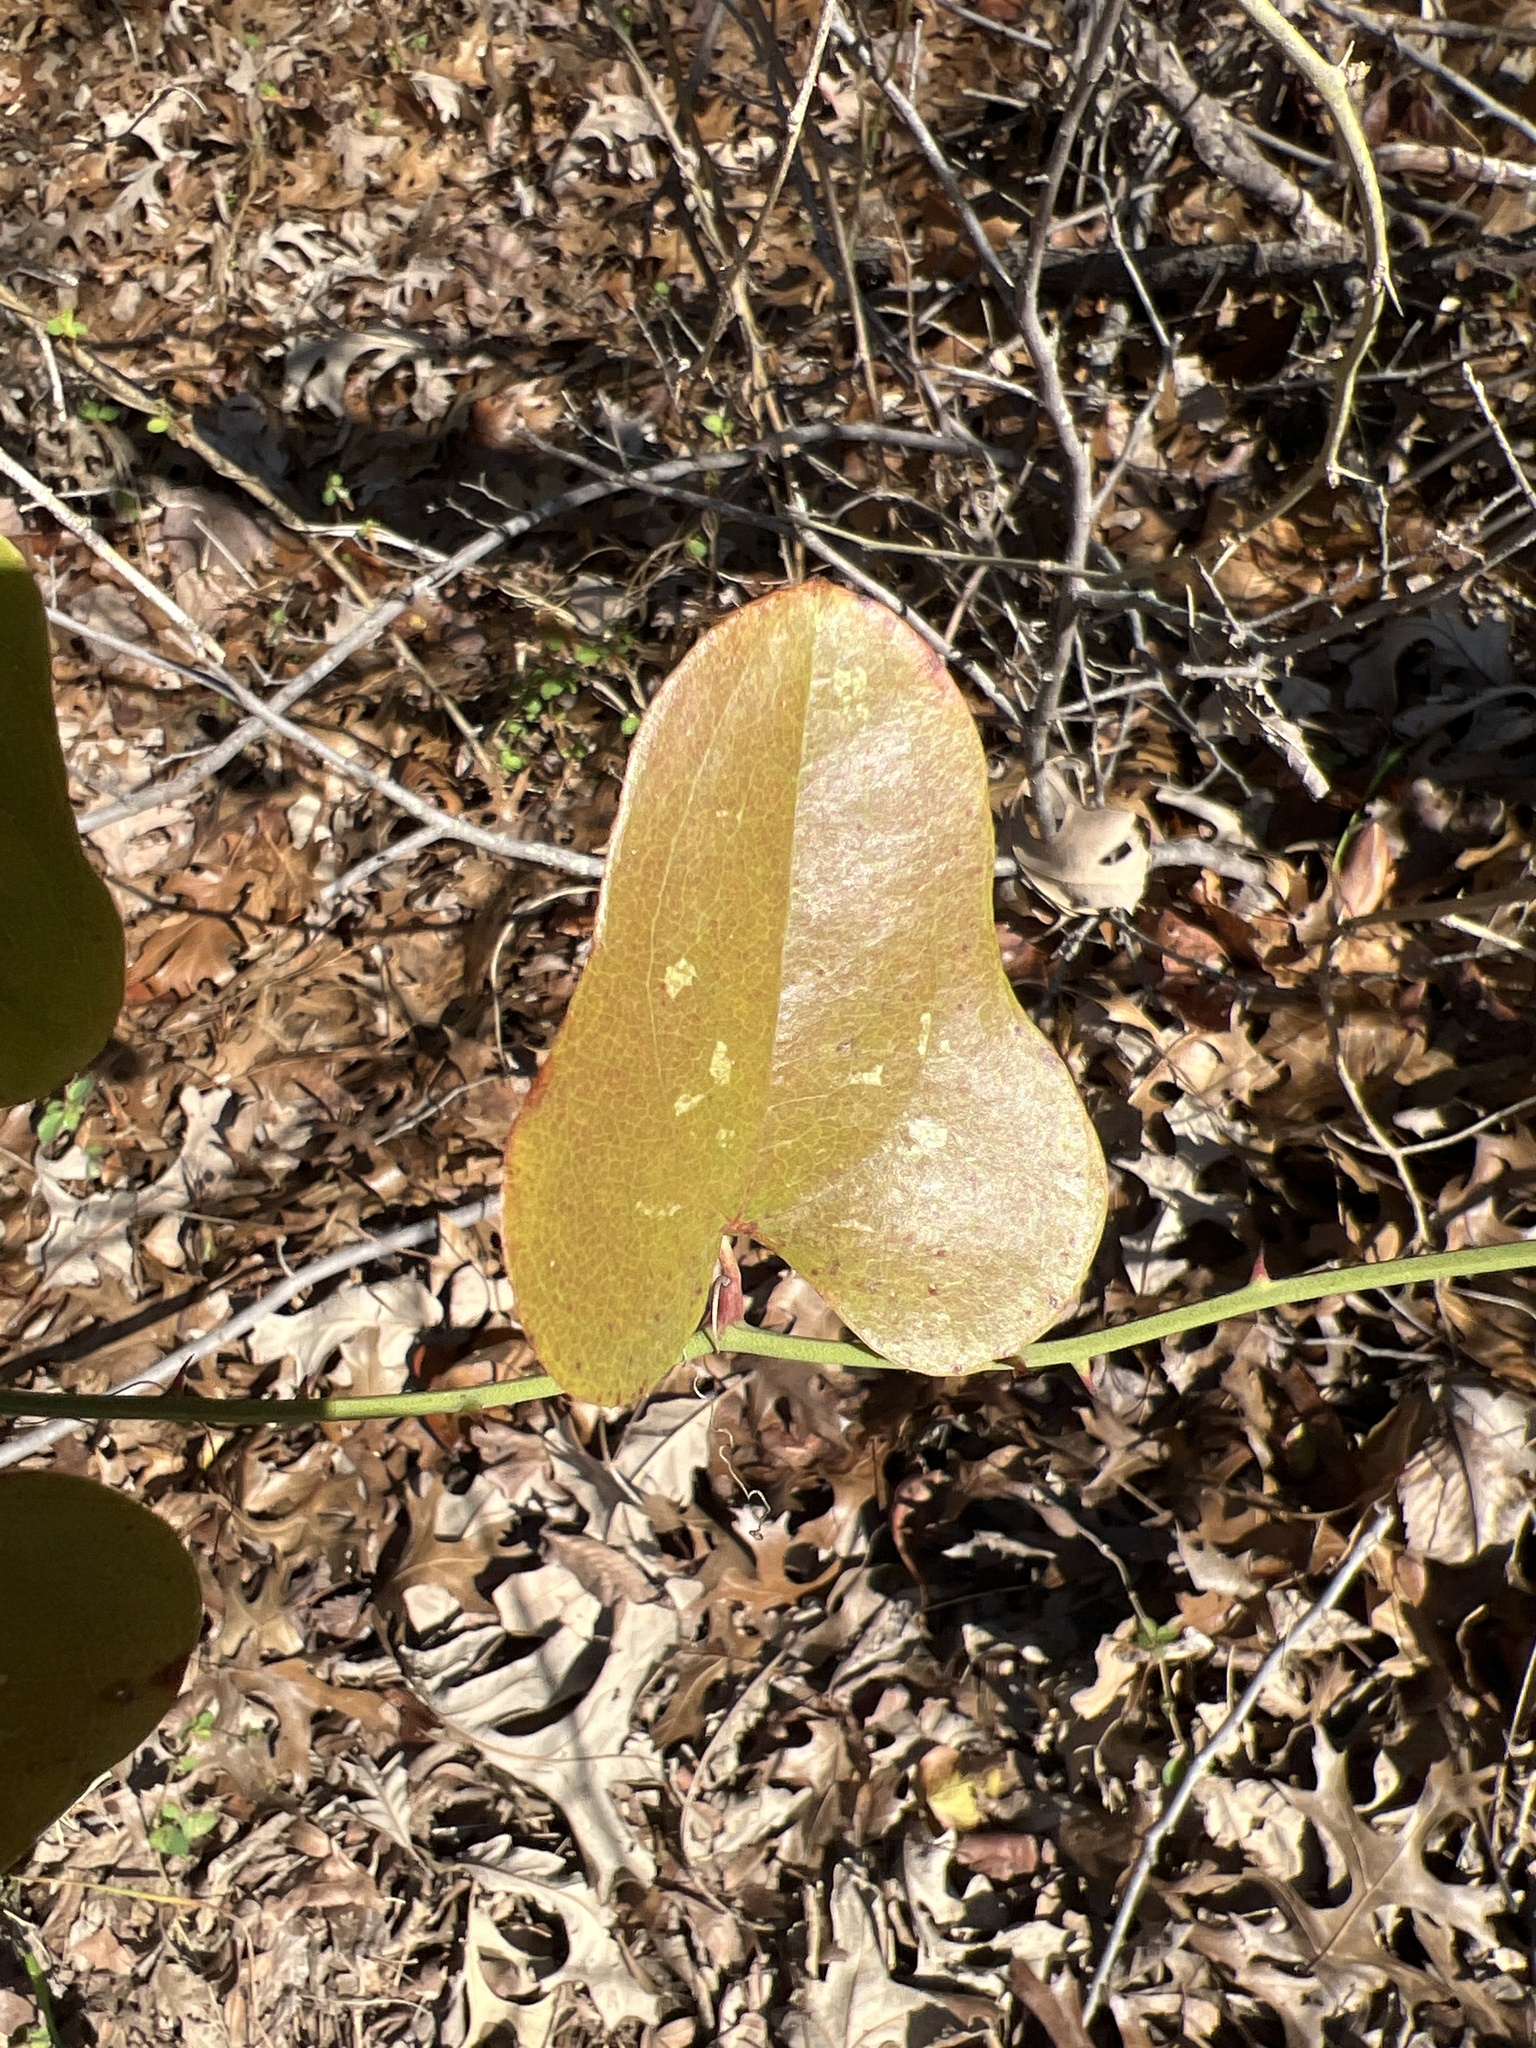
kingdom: Plantae
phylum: Tracheophyta
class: Liliopsida
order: Liliales
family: Smilacaceae
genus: Smilax
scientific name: Smilax bona-nox
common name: Catbrier
